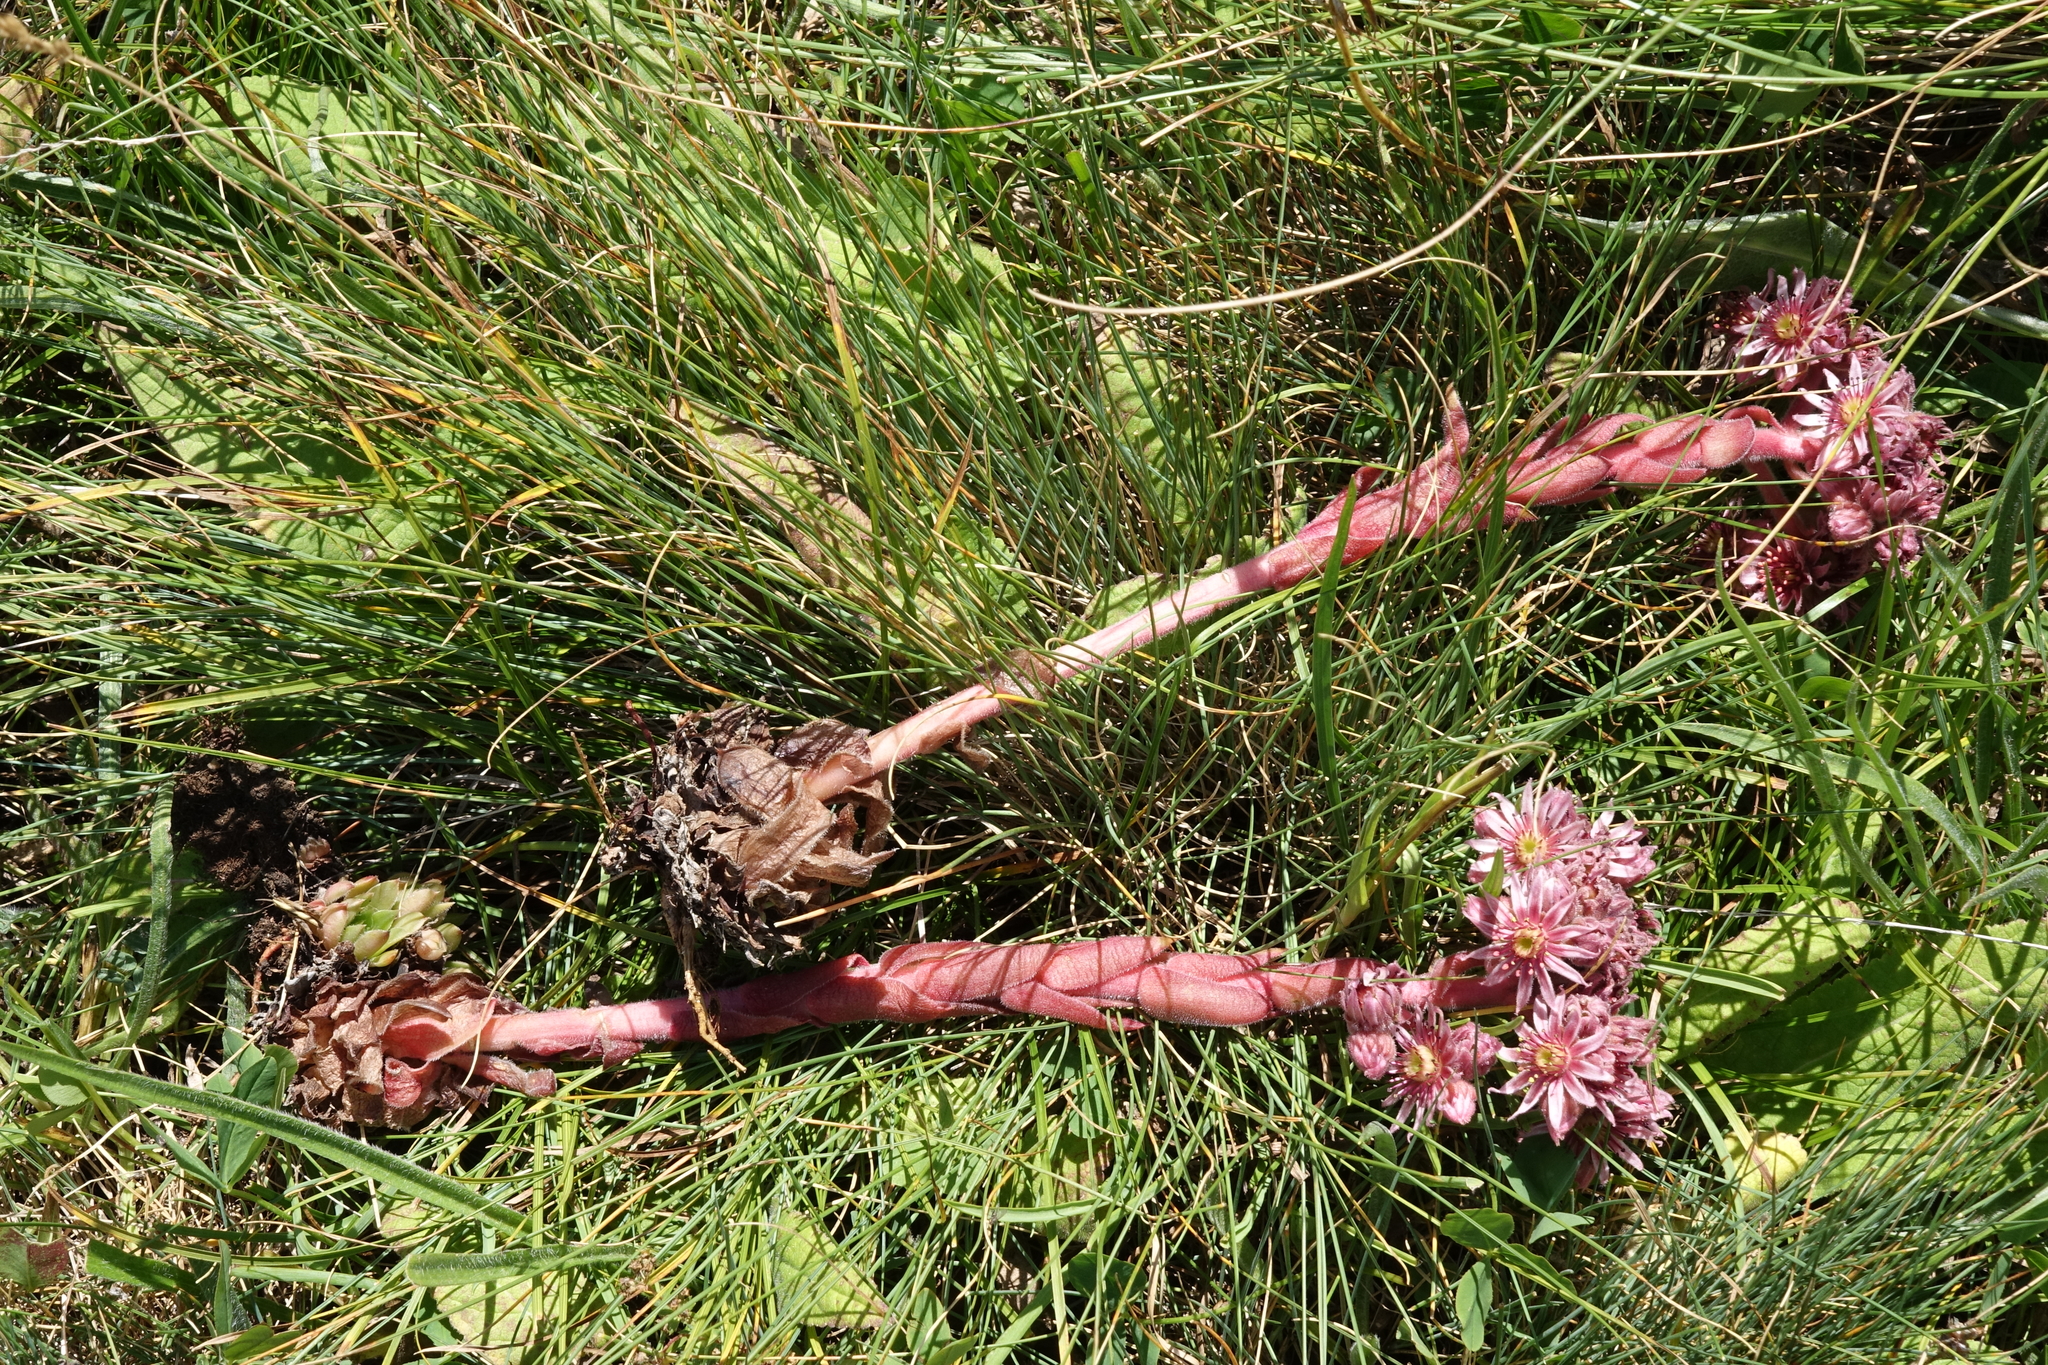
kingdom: Plantae
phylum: Tracheophyta
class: Magnoliopsida
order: Saxifragales
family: Crassulaceae
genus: Sempervivum
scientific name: Sempervivum caucasicum
